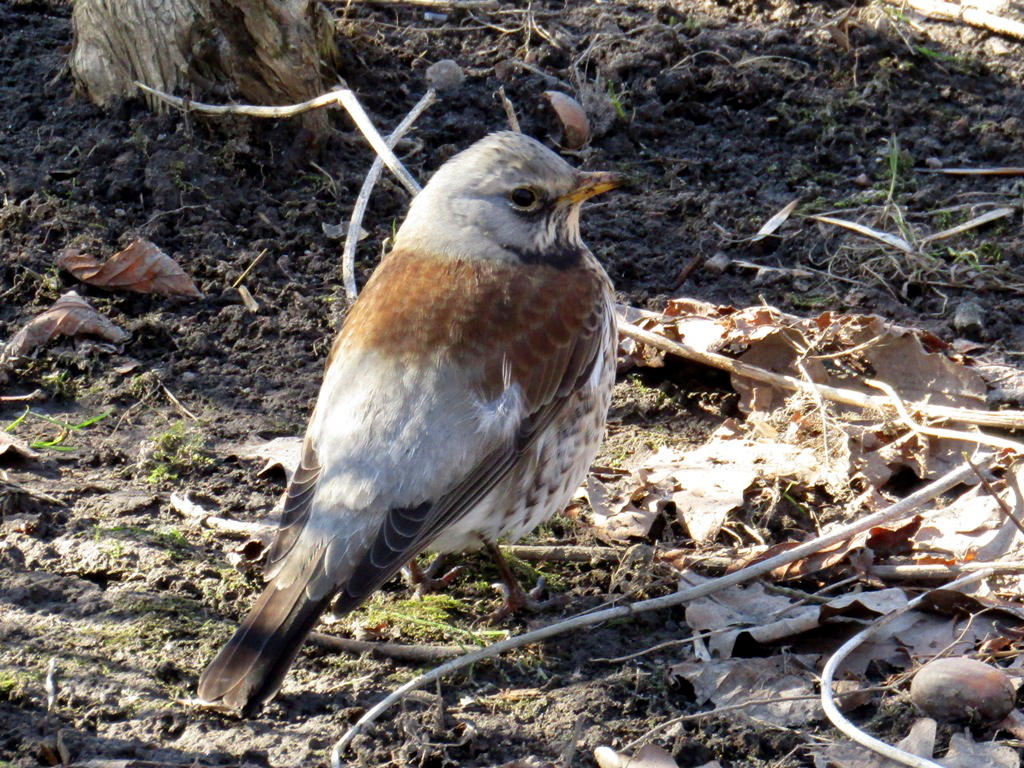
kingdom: Animalia
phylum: Chordata
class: Aves
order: Passeriformes
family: Turdidae
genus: Turdus
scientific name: Turdus pilaris
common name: Fieldfare
